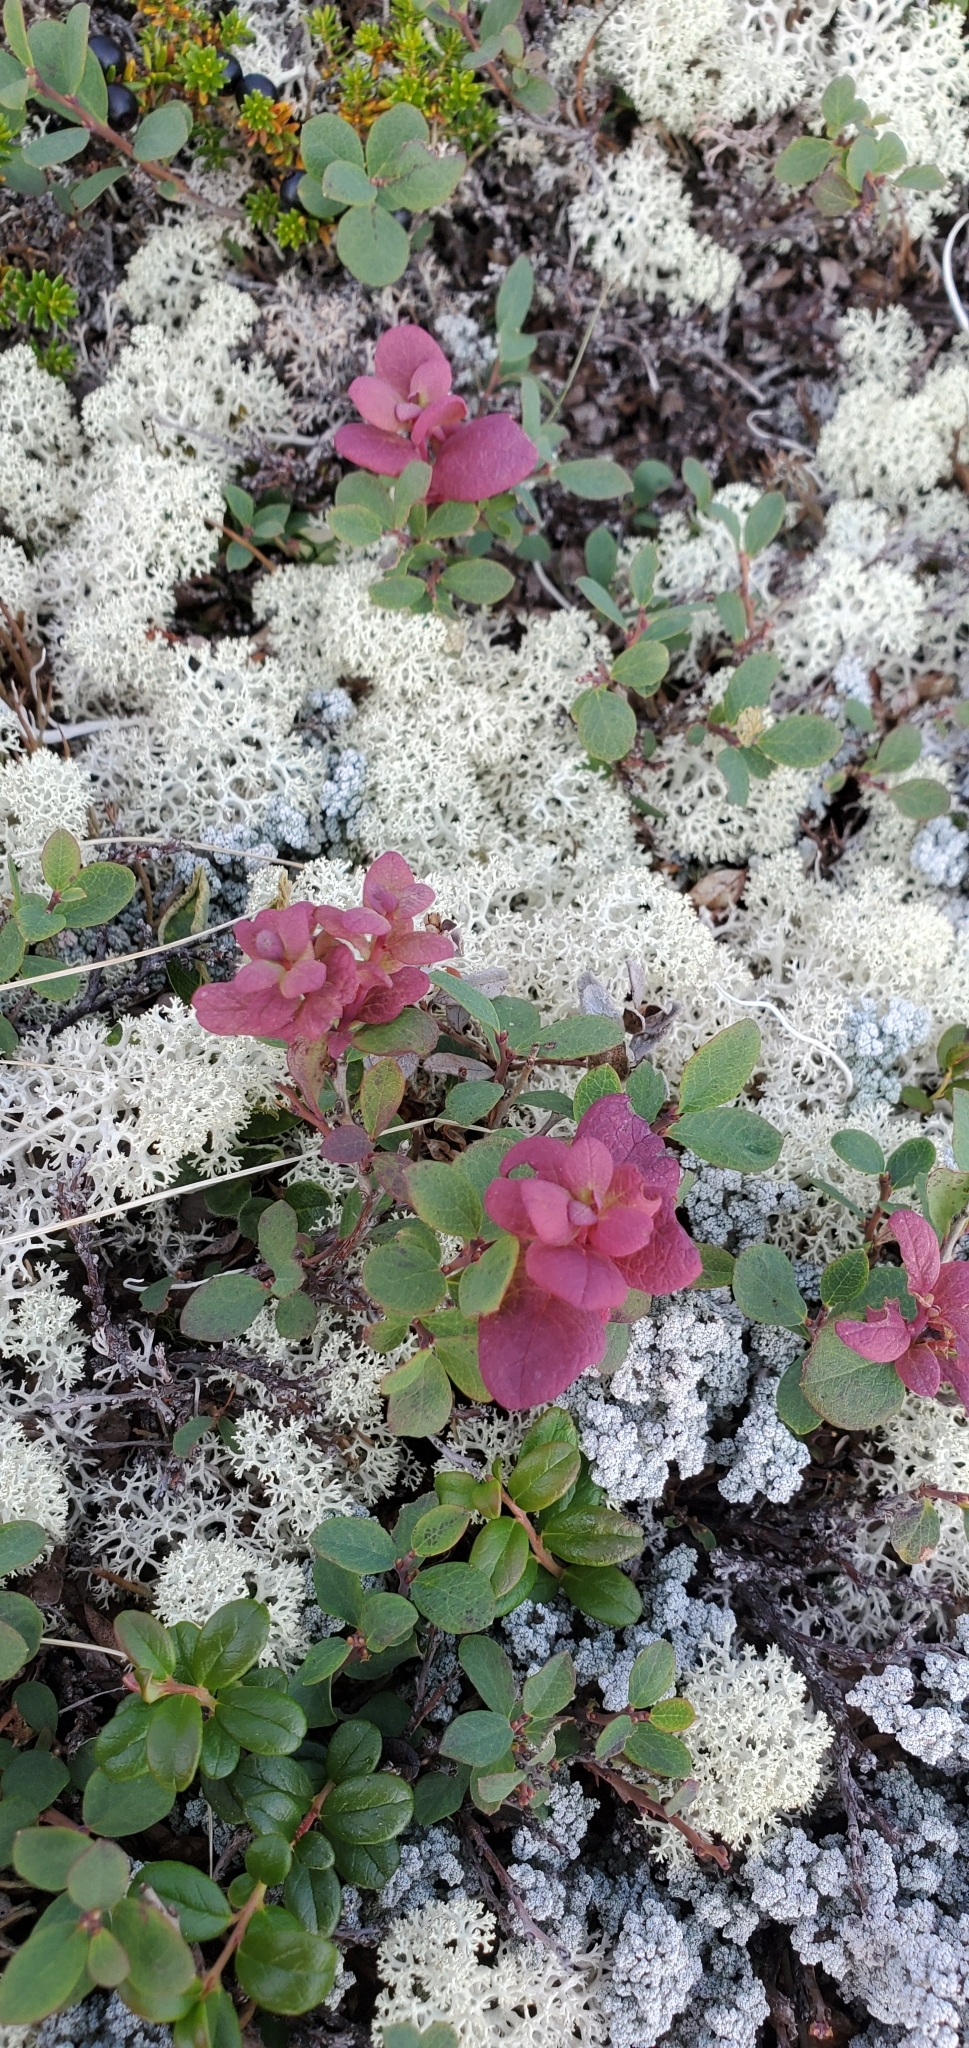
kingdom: Fungi
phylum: Basidiomycota
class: Exobasidiomycetes
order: Exobasidiales
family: Exobasidiaceae
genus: Exobasidium
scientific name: Exobasidium vaccinii-uliginosi
